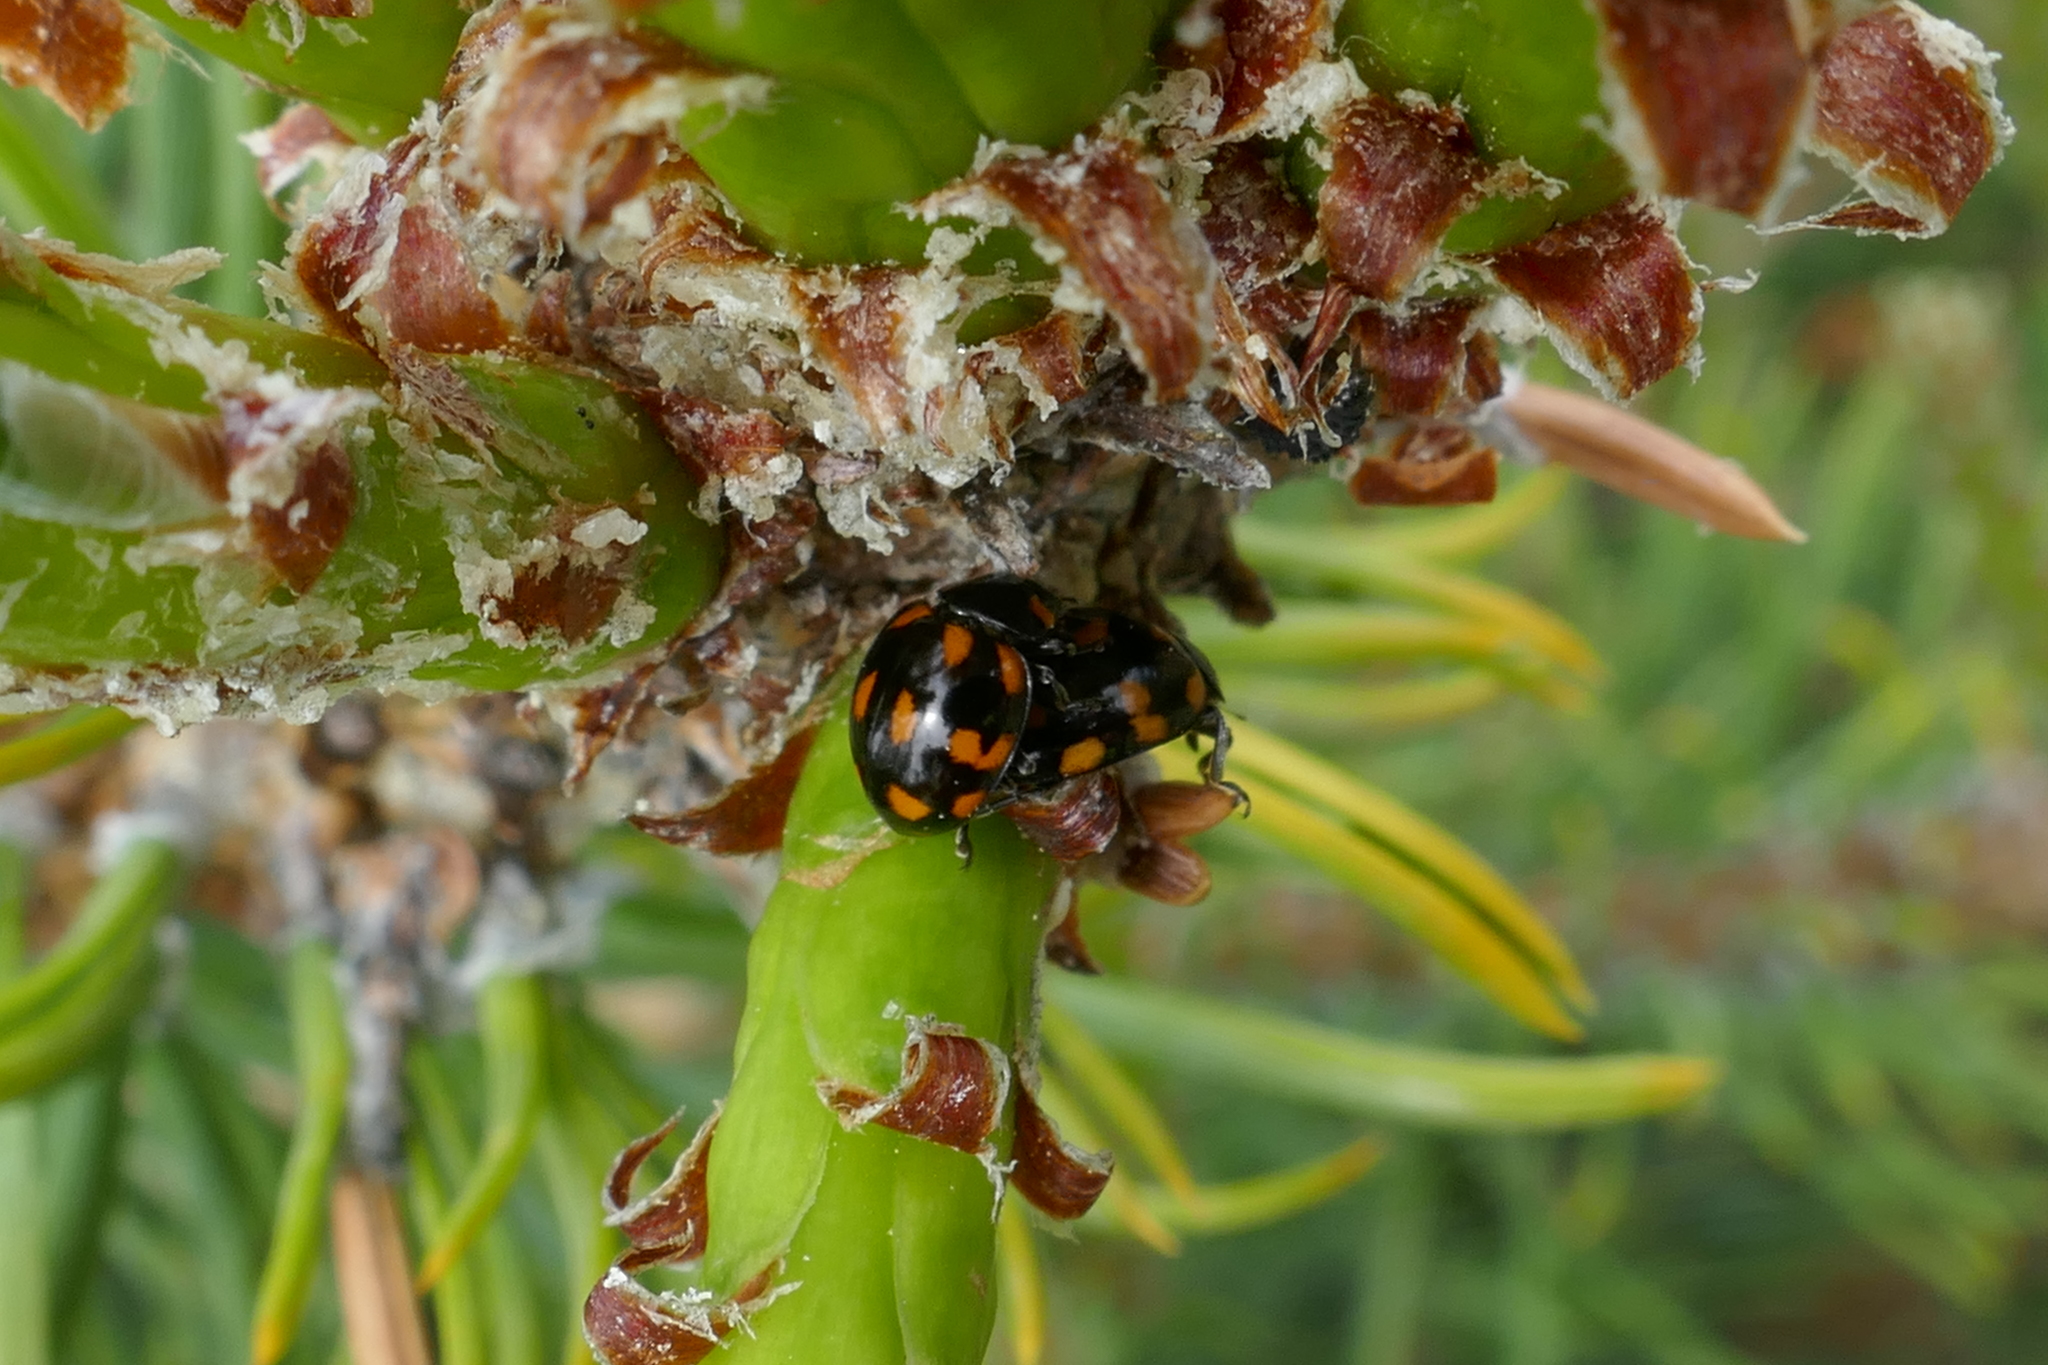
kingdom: Animalia
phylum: Arthropoda
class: Insecta
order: Coleoptera
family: Coccinellidae
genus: Coccinella
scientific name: Coccinella leonina
